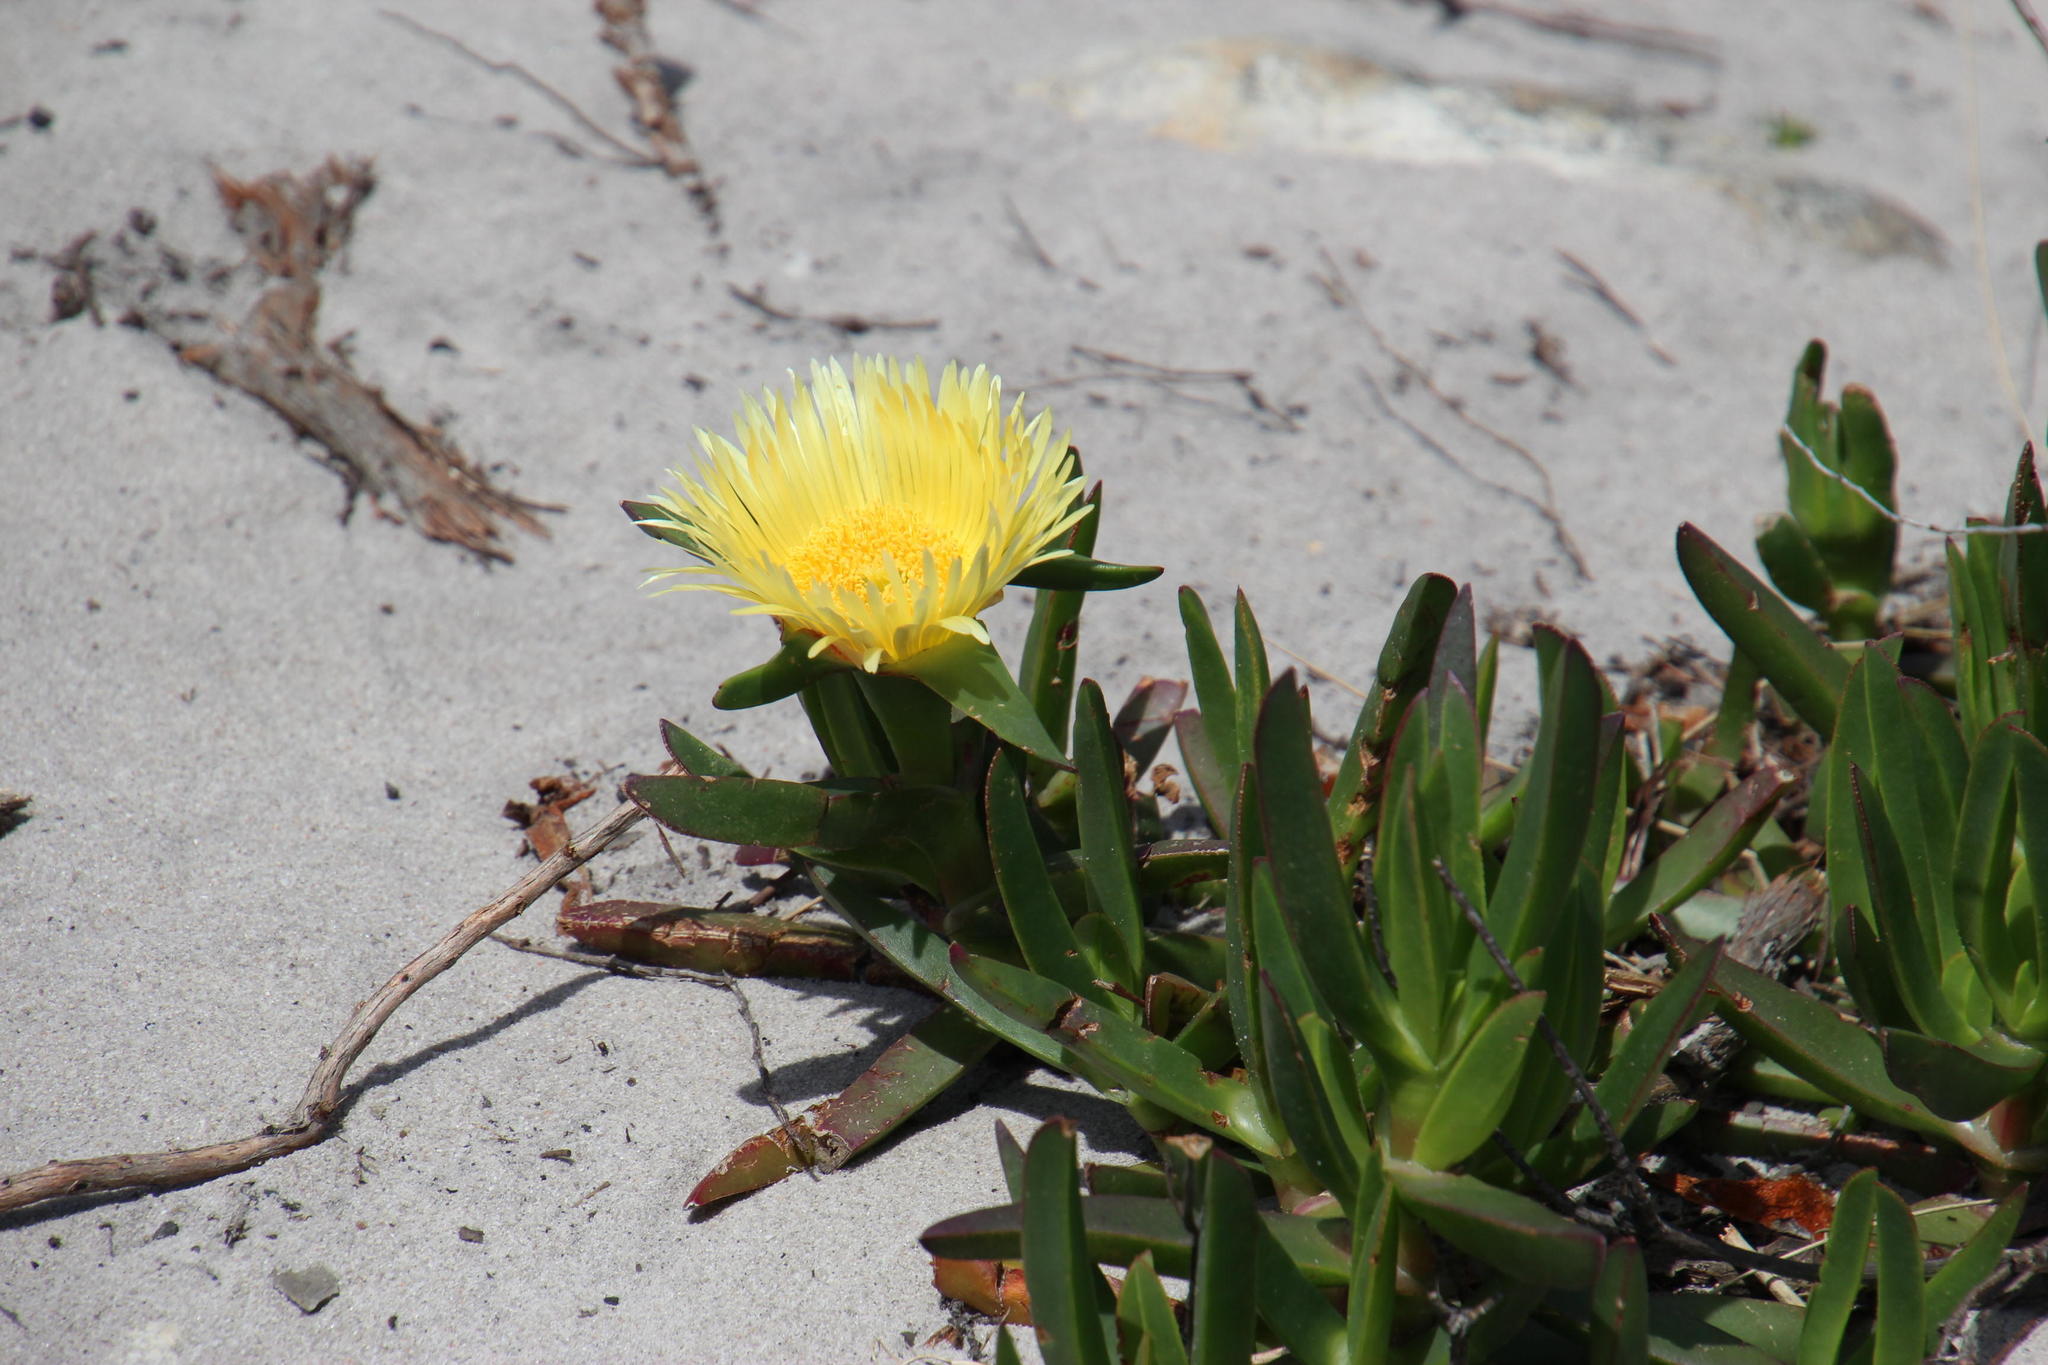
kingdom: Plantae
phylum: Tracheophyta
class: Magnoliopsida
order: Caryophyllales
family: Aizoaceae
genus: Carpobrotus
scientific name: Carpobrotus edulis
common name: Hottentot-fig
